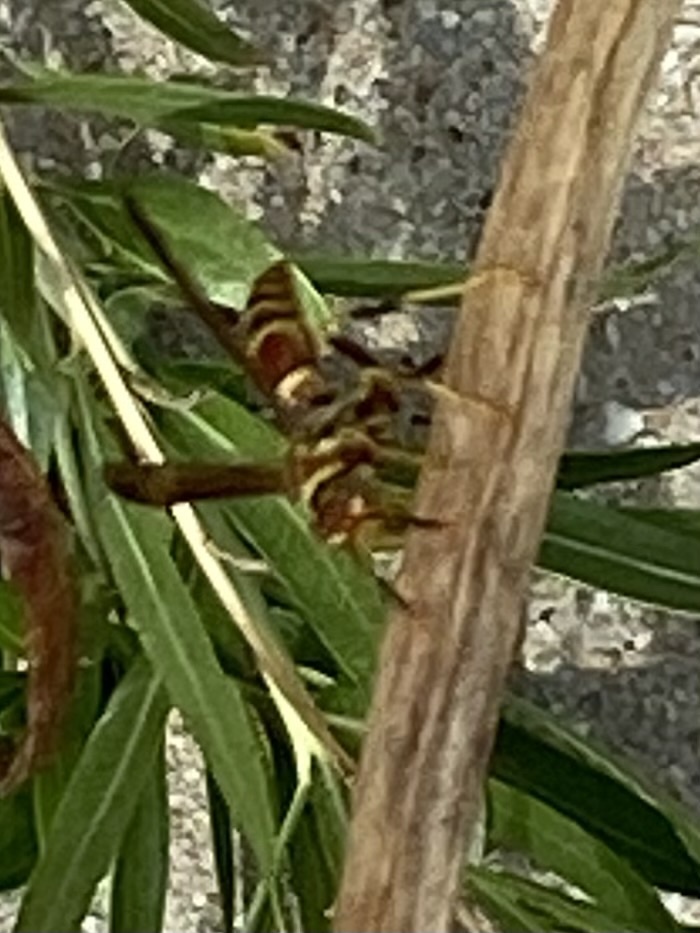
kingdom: Animalia
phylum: Arthropoda
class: Insecta
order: Hymenoptera
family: Eumenidae
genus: Polistes
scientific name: Polistes exclamans
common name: Paper wasp
